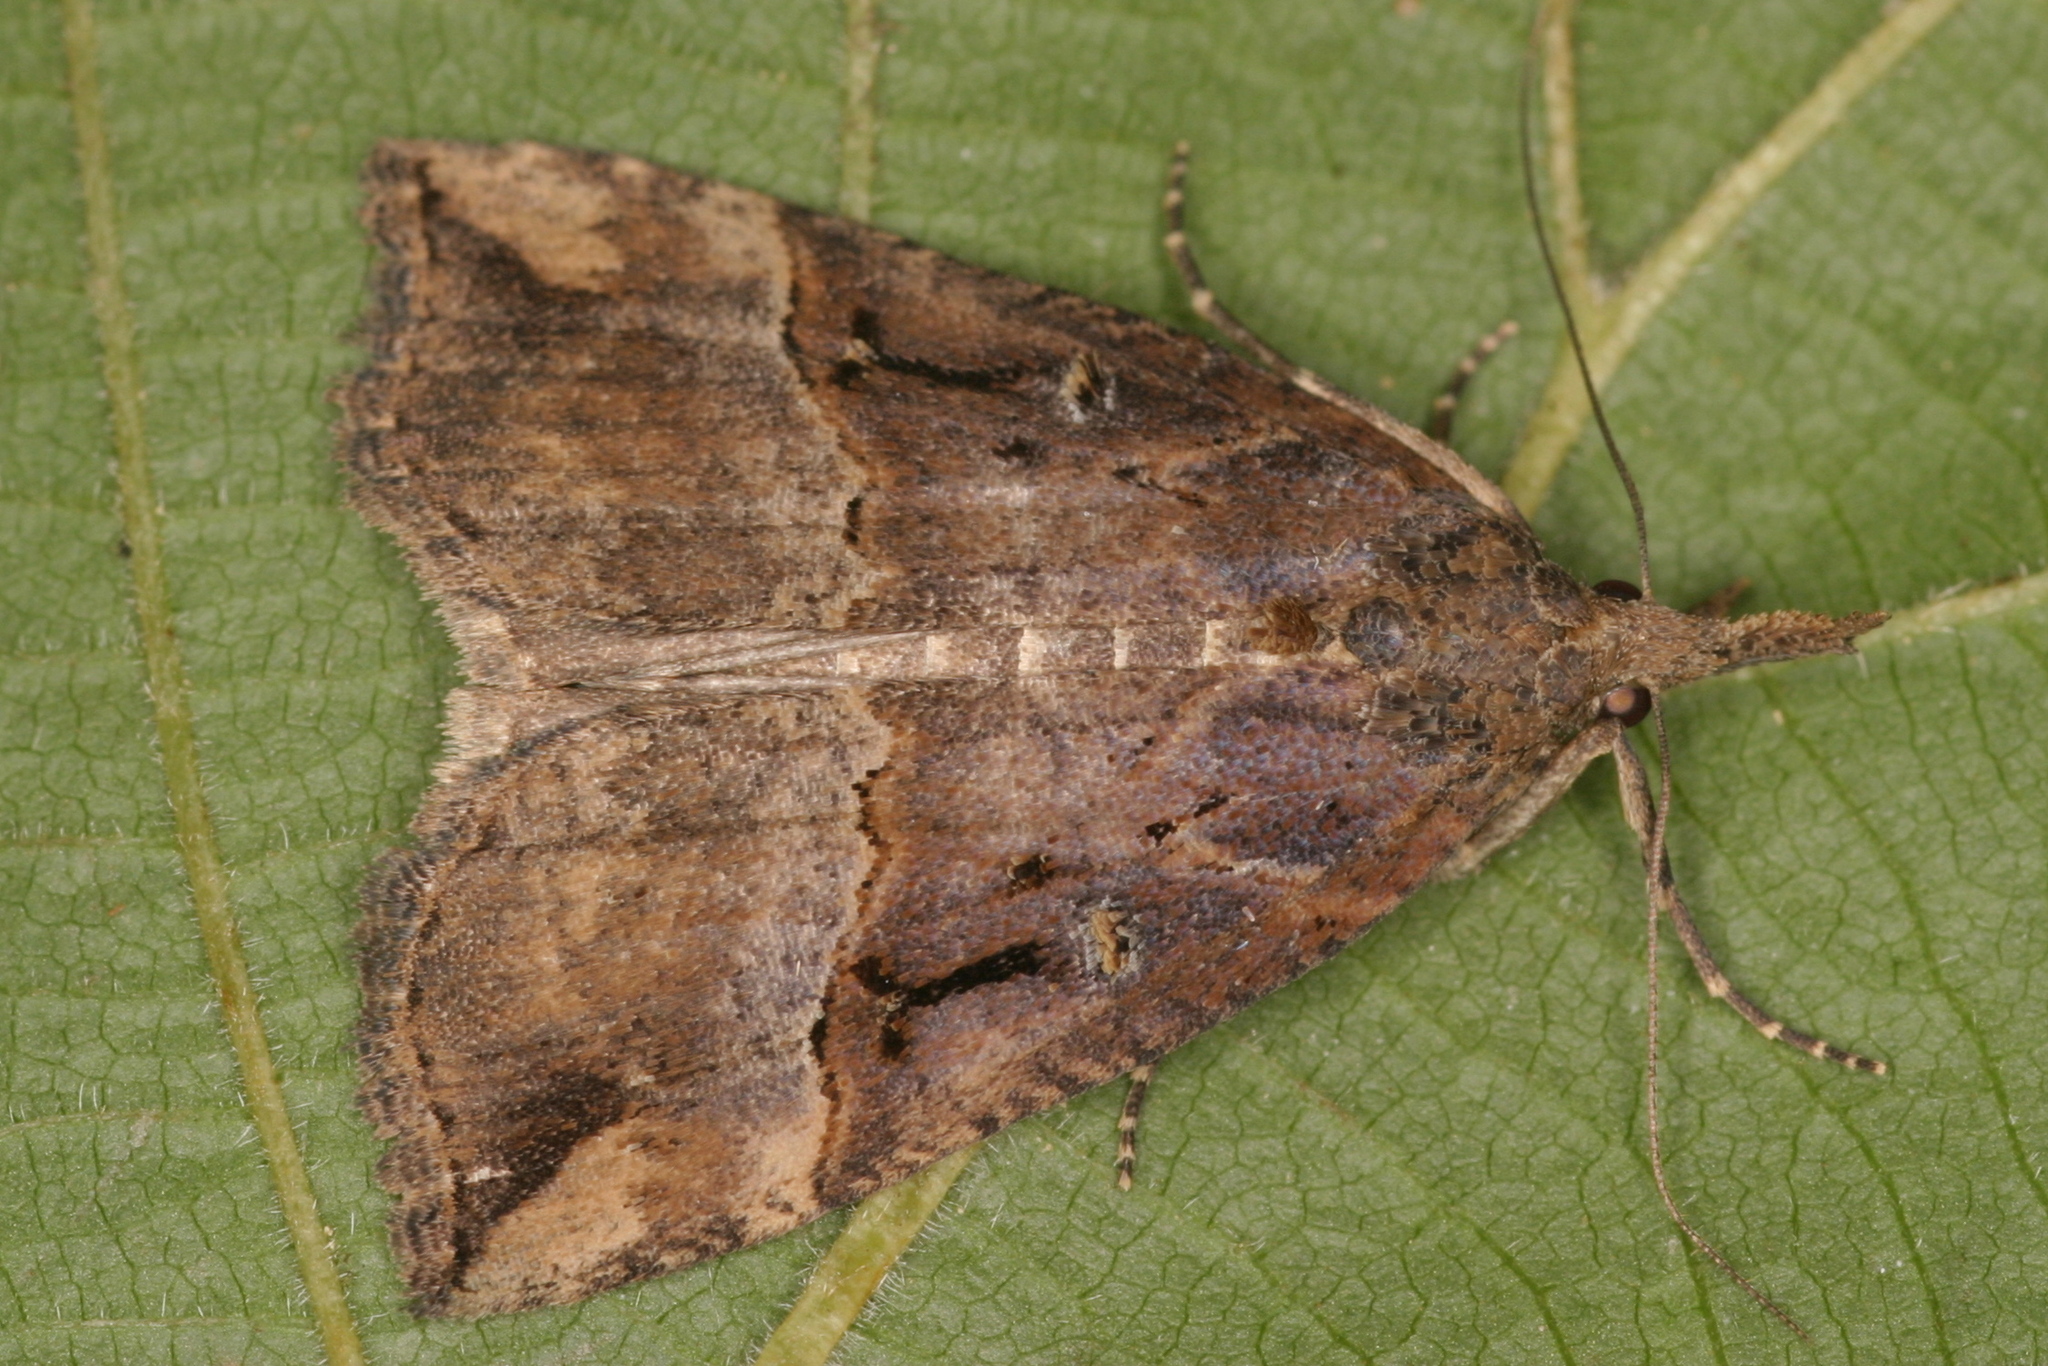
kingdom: Animalia
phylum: Arthropoda
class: Insecta
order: Lepidoptera
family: Erebidae
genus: Hypena
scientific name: Hypena rostralis
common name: Buttoned snout
